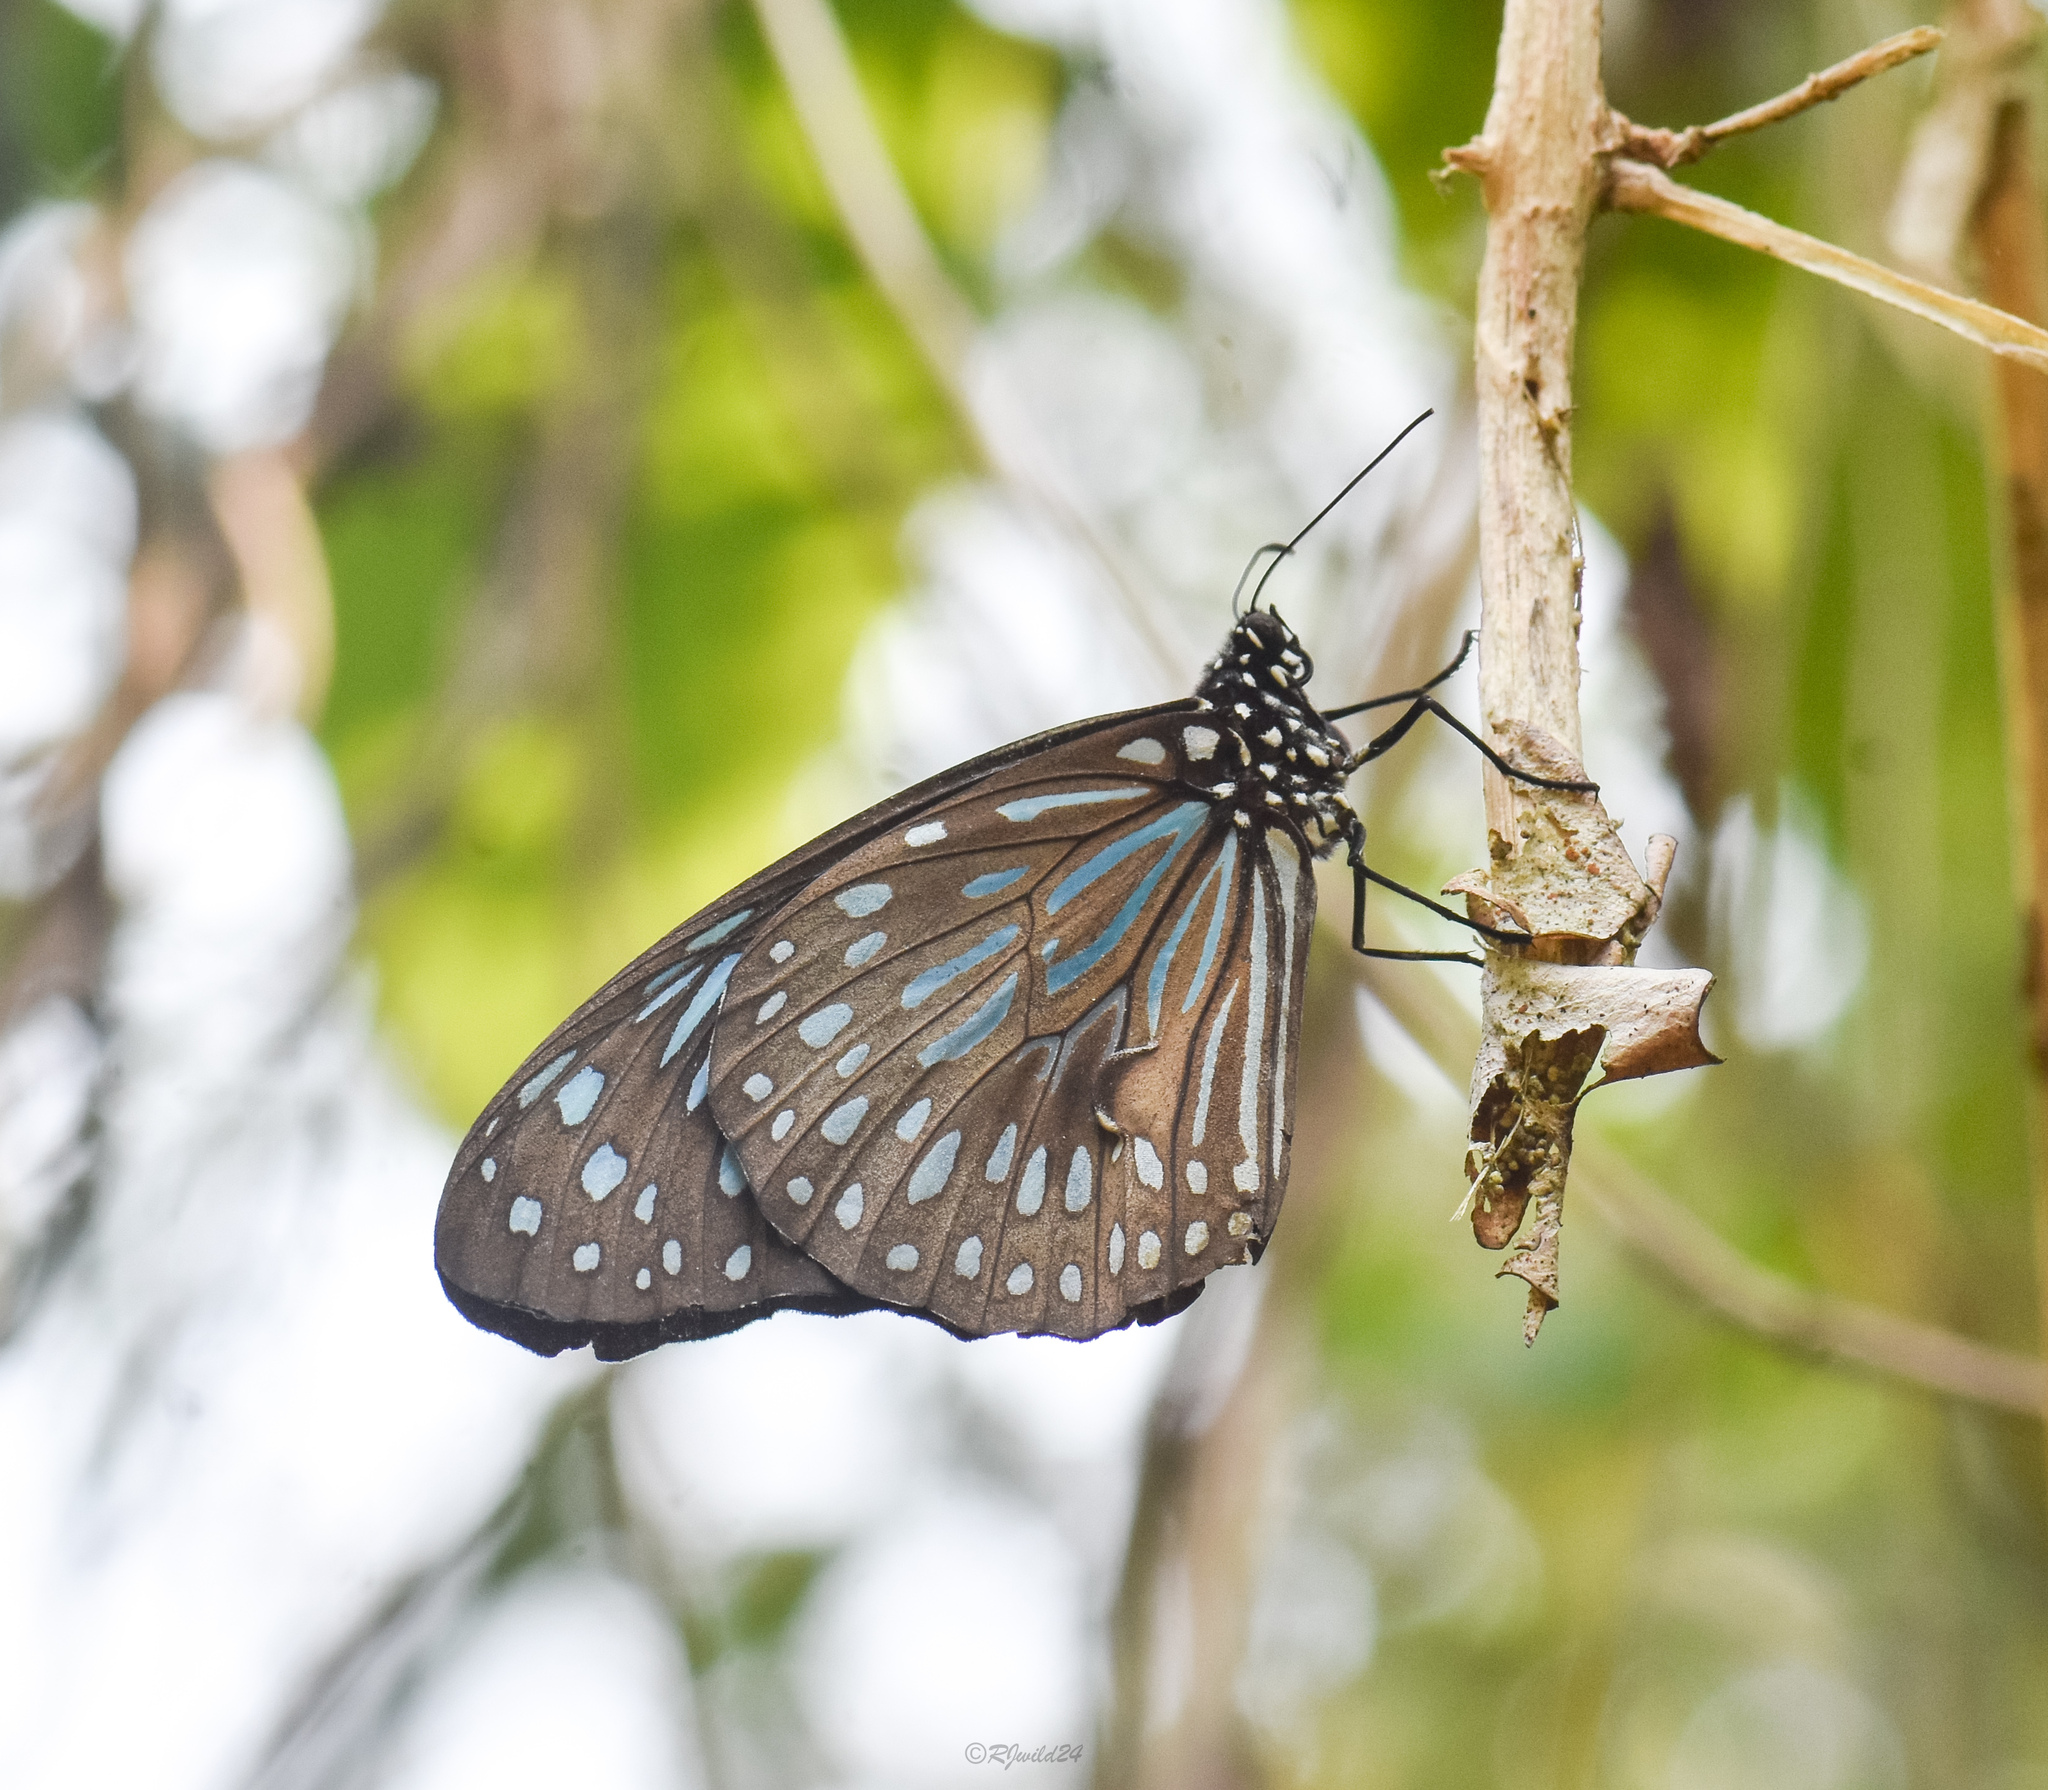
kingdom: Animalia
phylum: Arthropoda
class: Insecta
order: Lepidoptera
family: Nymphalidae
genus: Tirumala
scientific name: Tirumala septentrionis
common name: Dark blue tiger butterfly
